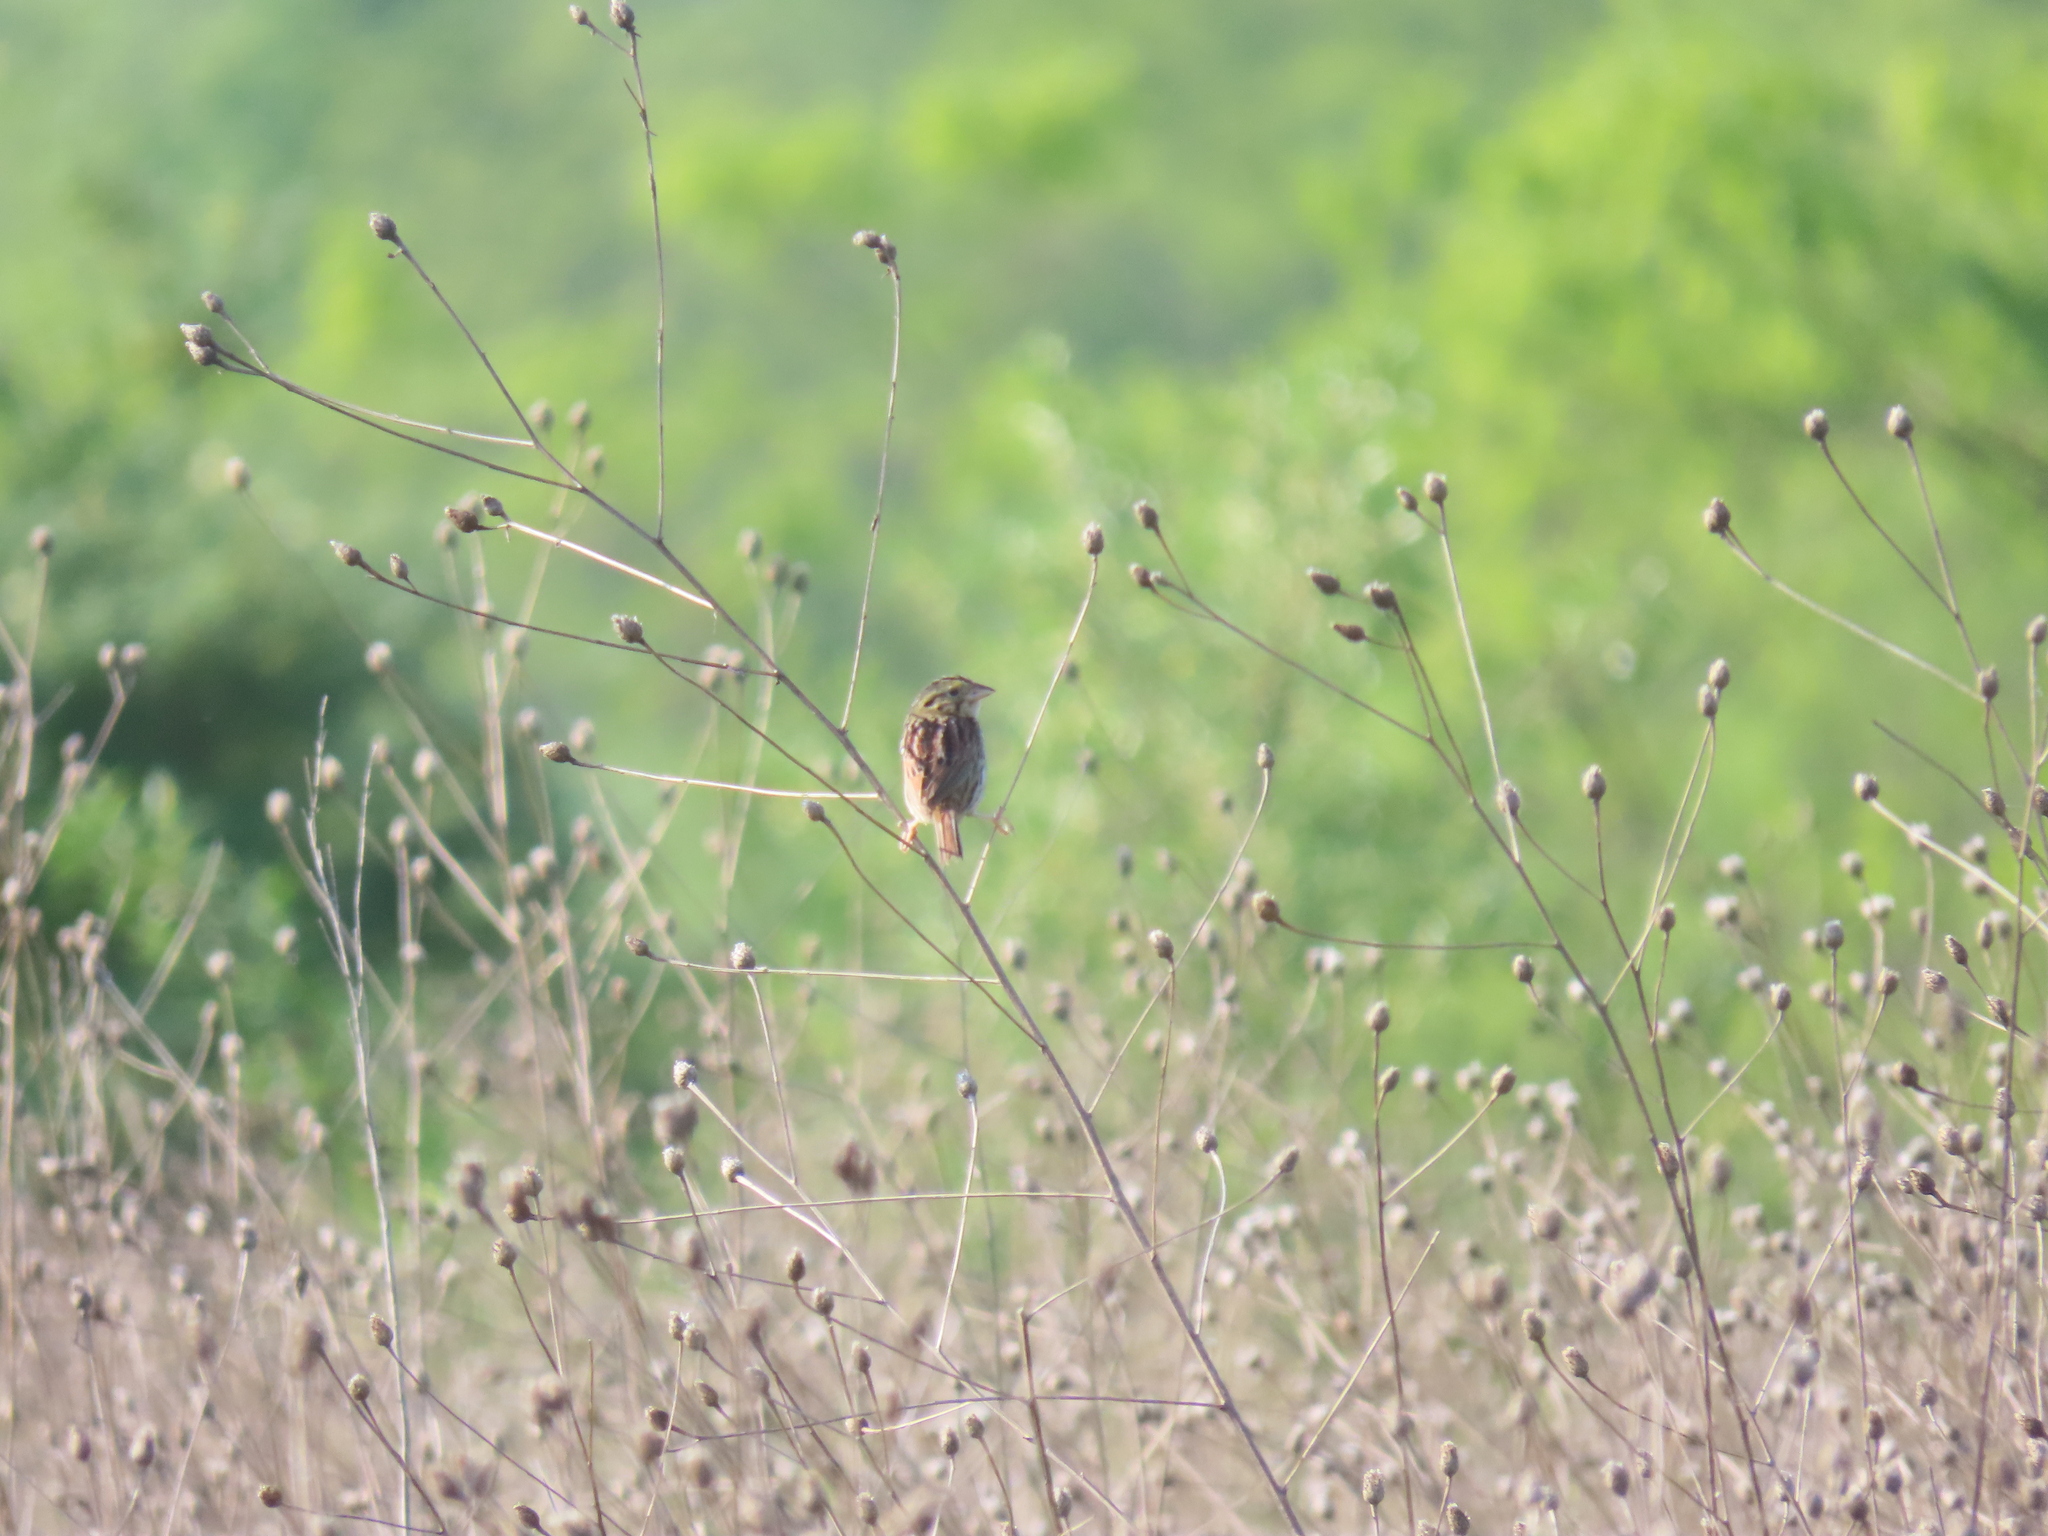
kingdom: Animalia
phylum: Chordata
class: Aves
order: Passeriformes
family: Passerellidae
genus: Centronyx
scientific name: Centronyx henslowii
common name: Henslow's sparrow
